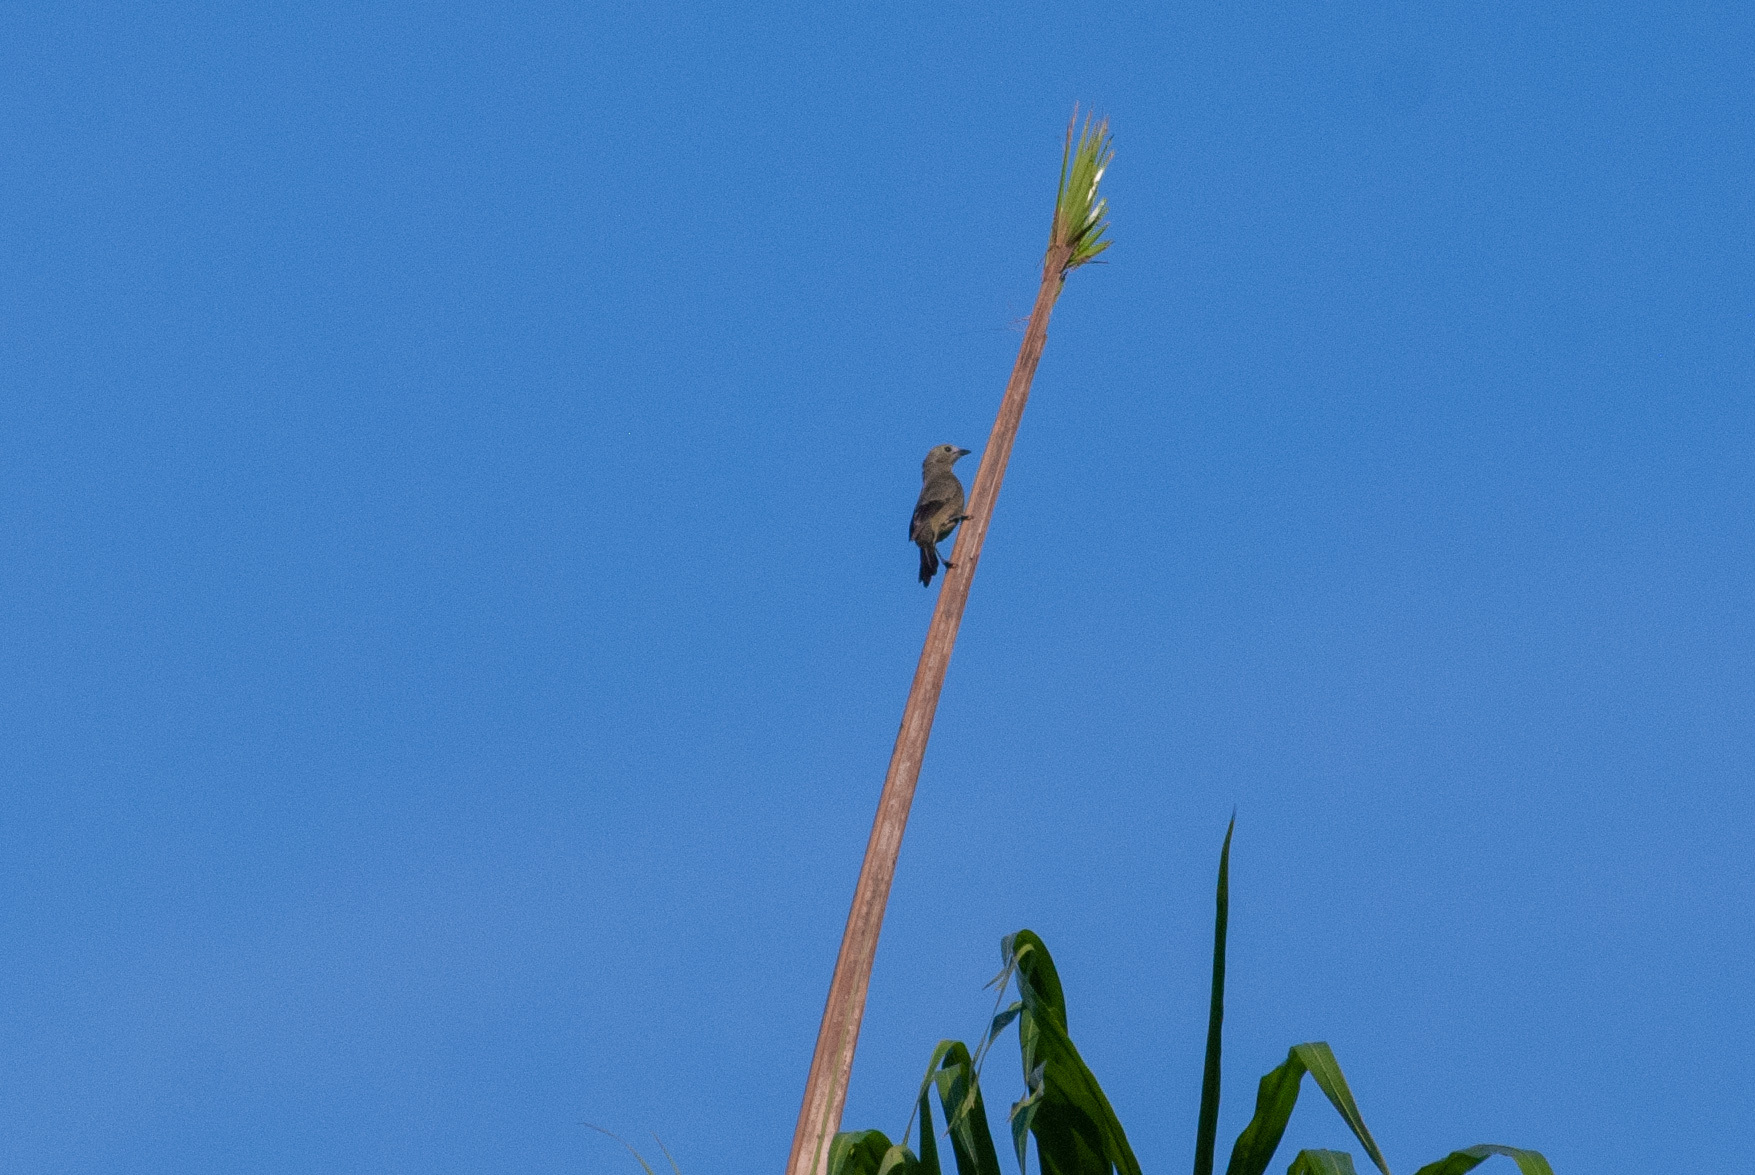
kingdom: Animalia
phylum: Chordata
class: Aves
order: Passeriformes
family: Thraupidae
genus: Thraupis
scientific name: Thraupis palmarum
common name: Palm tanager
